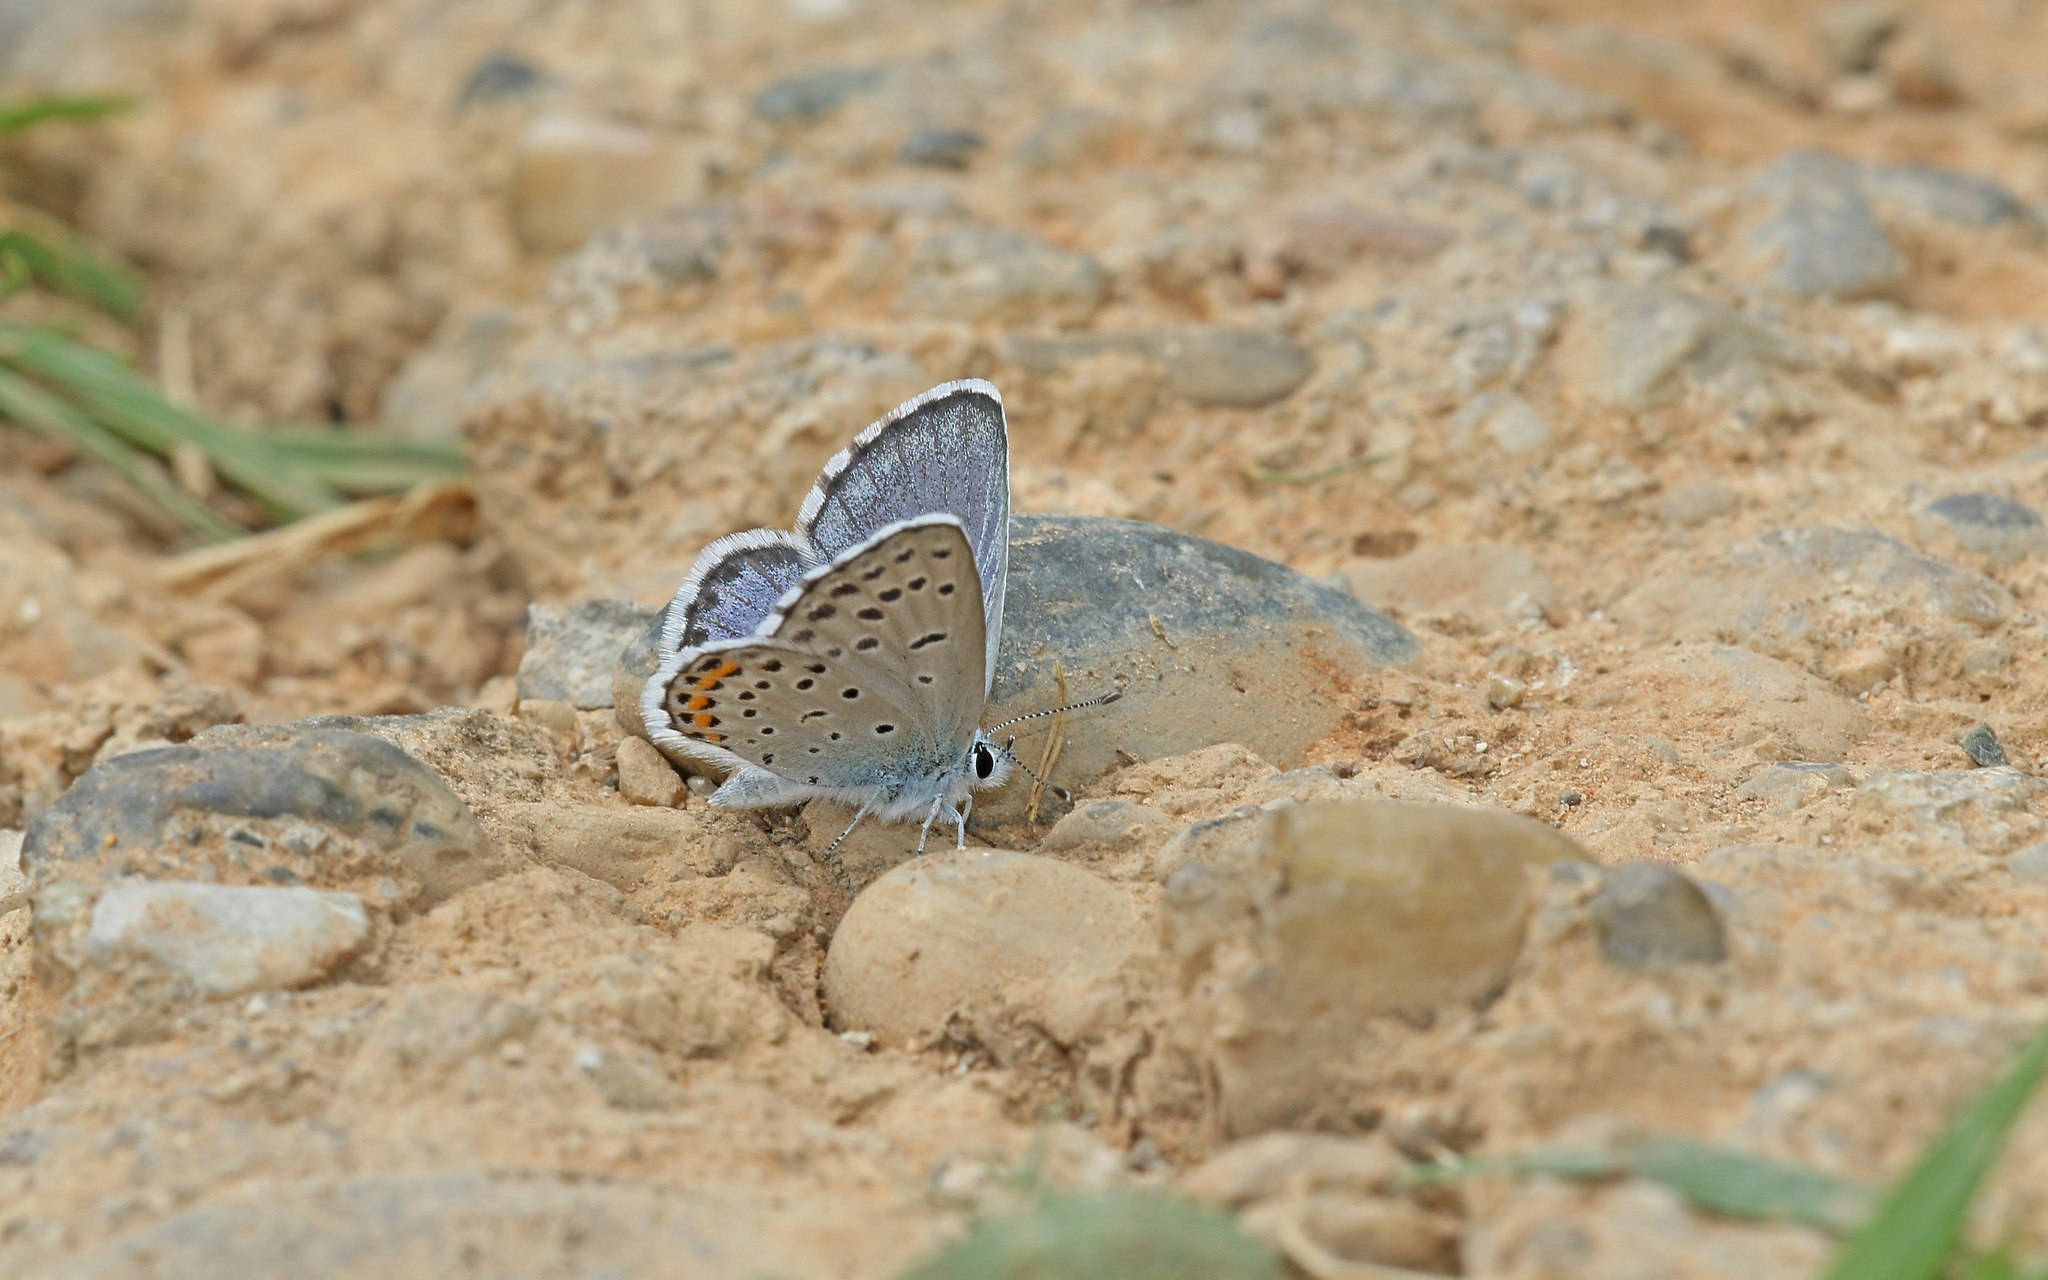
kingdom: Animalia
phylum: Arthropoda
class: Insecta
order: Lepidoptera
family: Lycaenidae
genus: Pseudophilotes
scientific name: Pseudophilotes baton
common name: Baton blue
